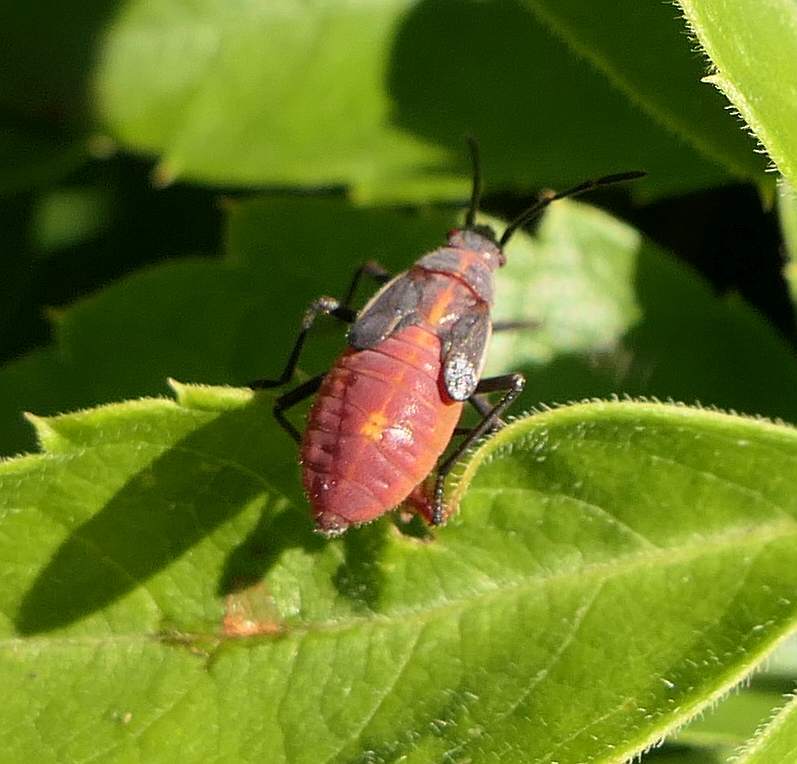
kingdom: Animalia
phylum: Arthropoda
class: Insecta
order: Hemiptera
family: Rhopalidae
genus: Boisea
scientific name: Boisea trivittata
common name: Boxelder bug
